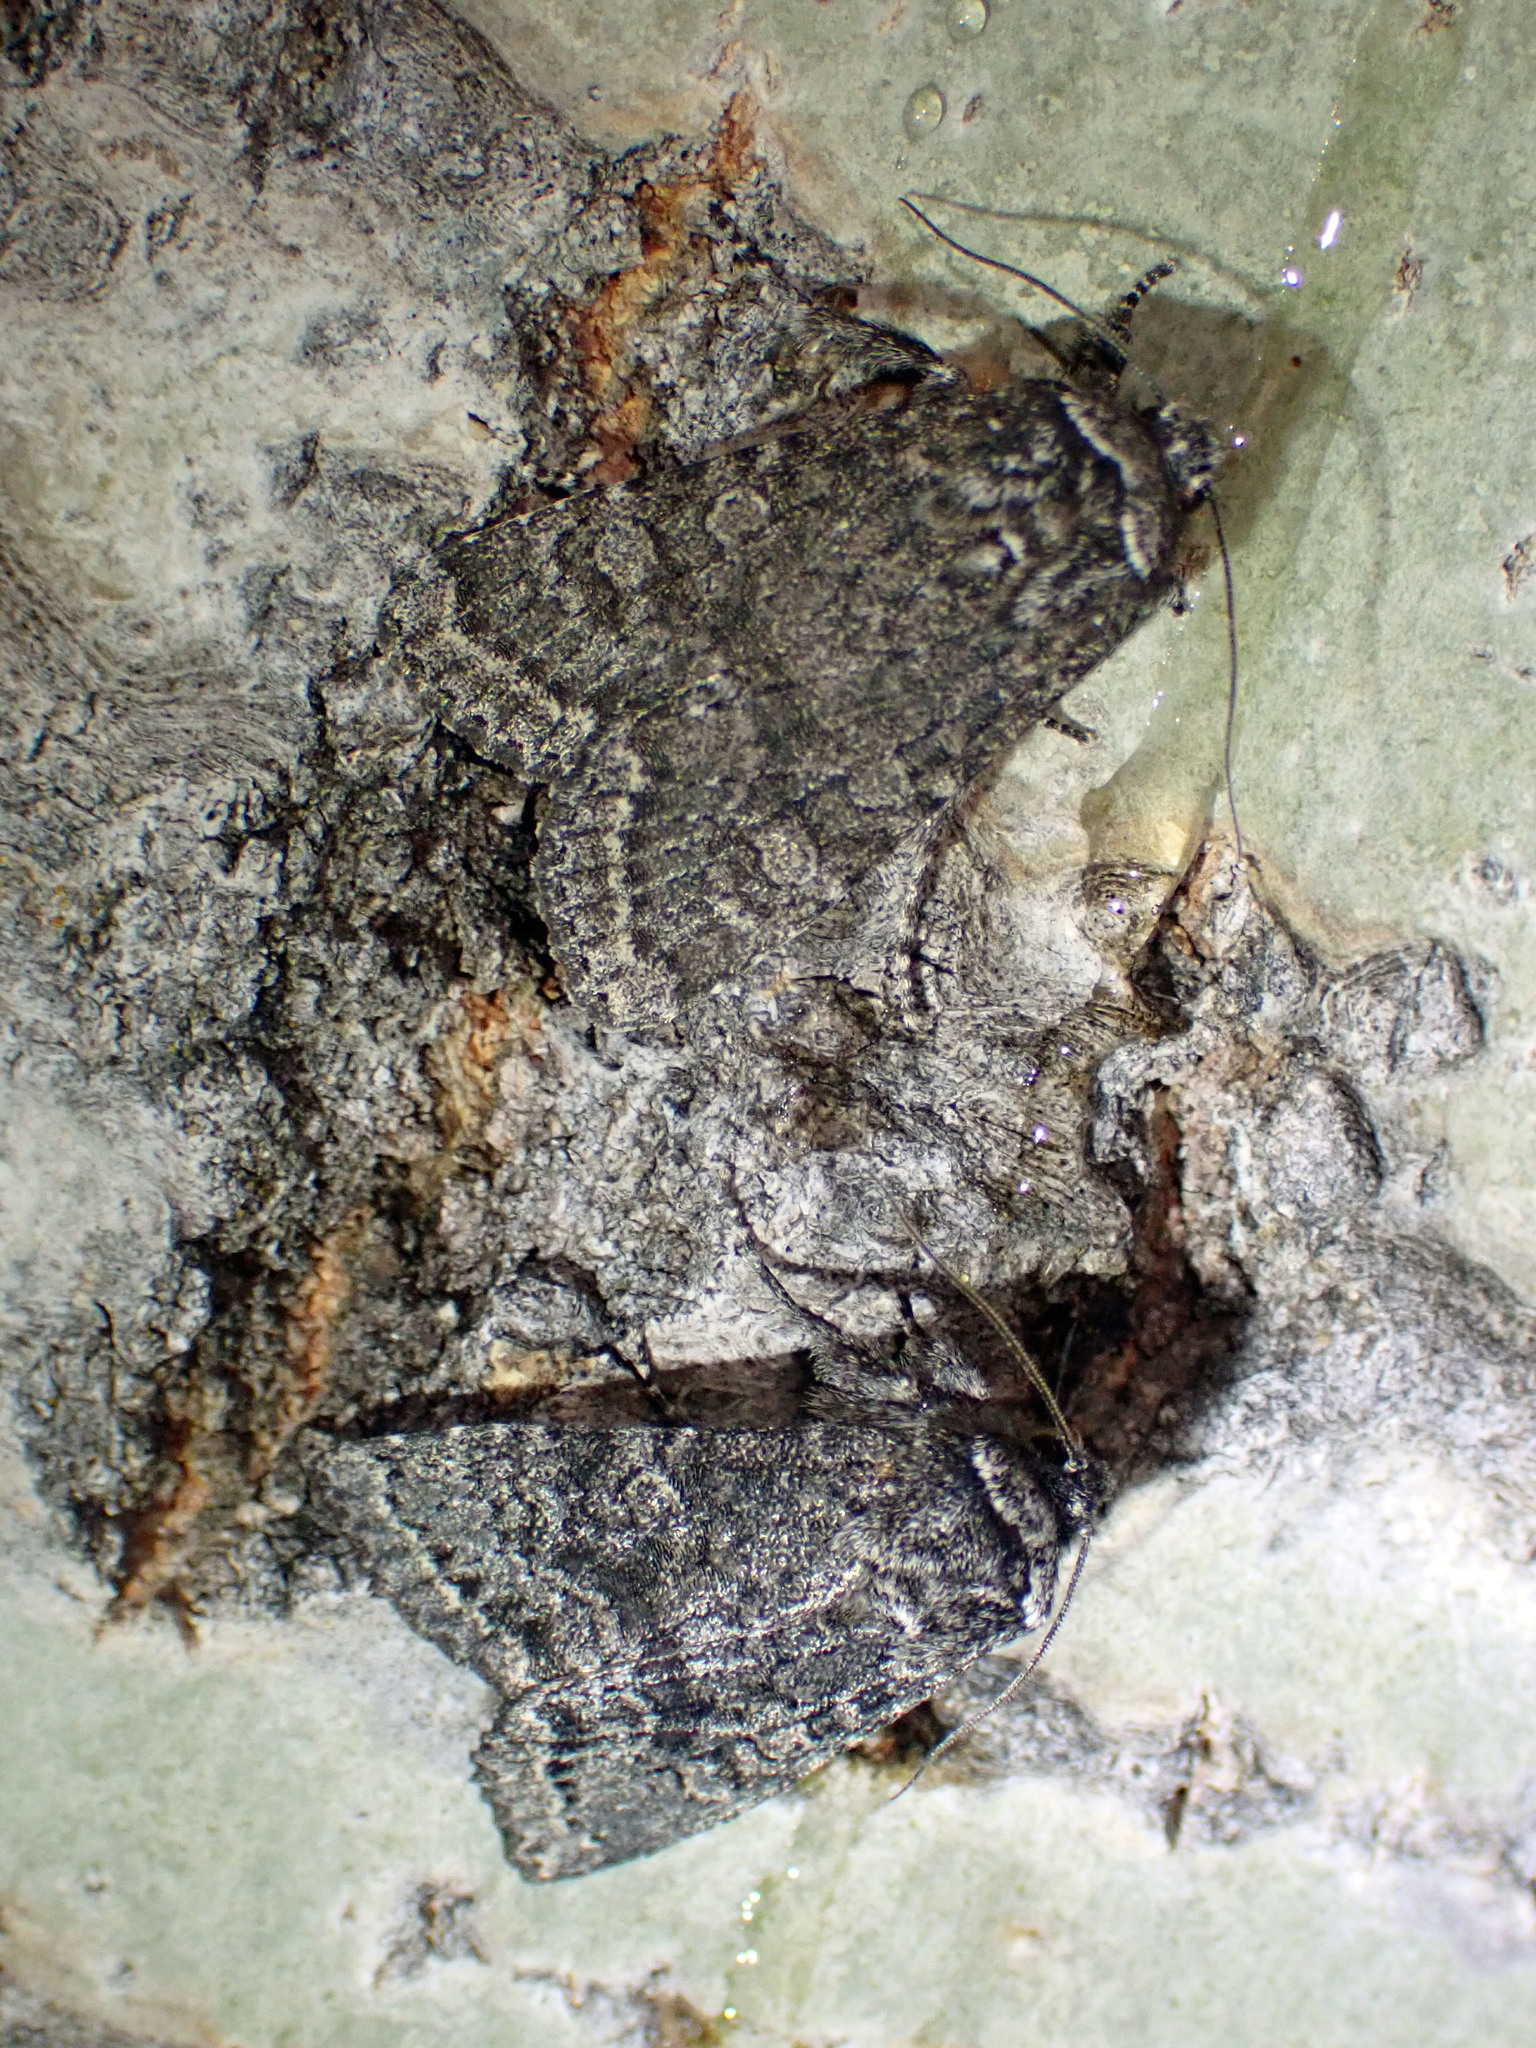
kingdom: Animalia
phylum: Arthropoda
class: Insecta
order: Lepidoptera
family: Noctuidae
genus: Egira
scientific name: Egira dolosa
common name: Lined black aspen cat.
